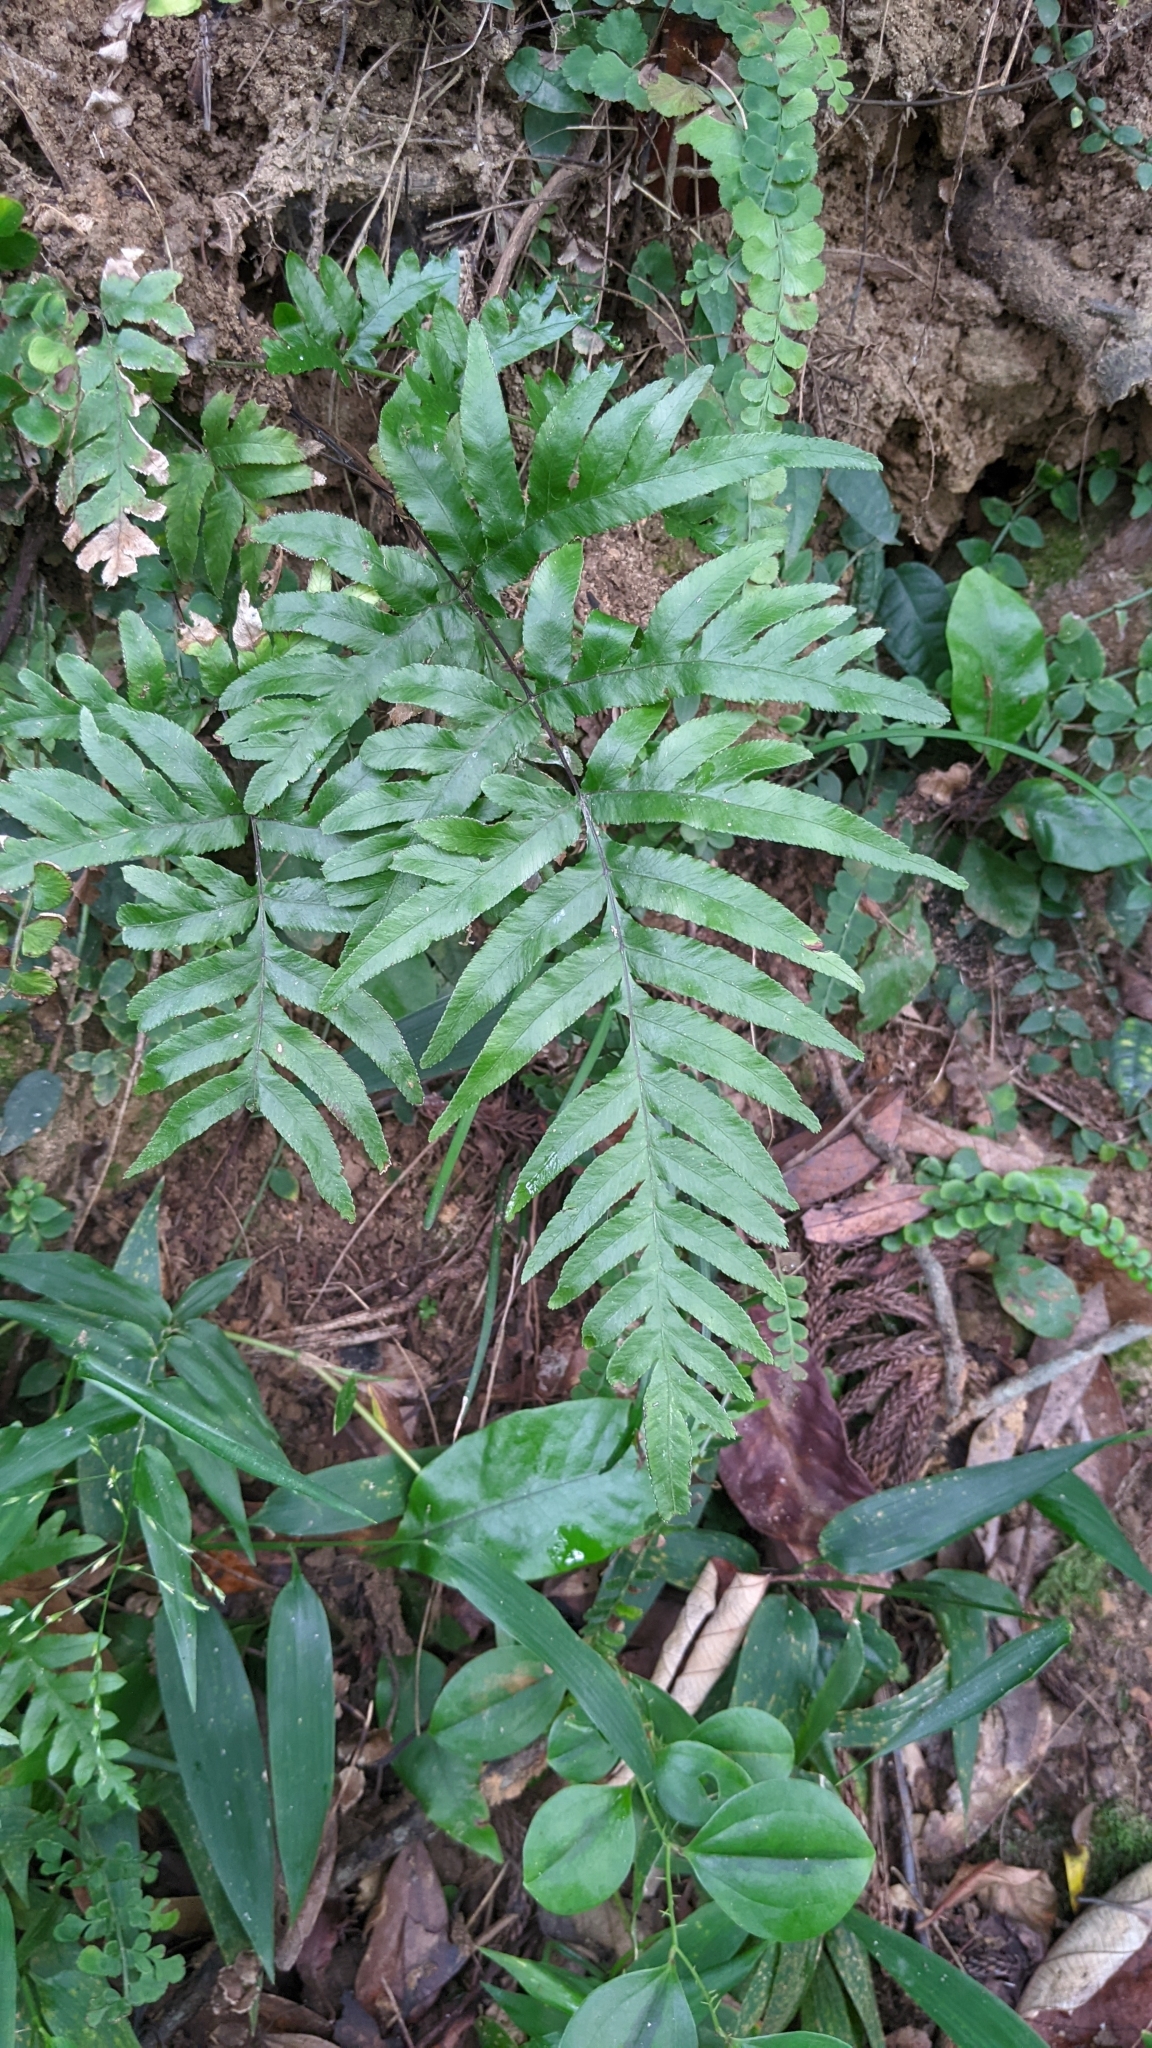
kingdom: Plantae
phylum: Tracheophyta
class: Polypodiopsida
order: Polypodiales
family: Pteridaceae
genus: Pteris
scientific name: Pteris semipinnata
